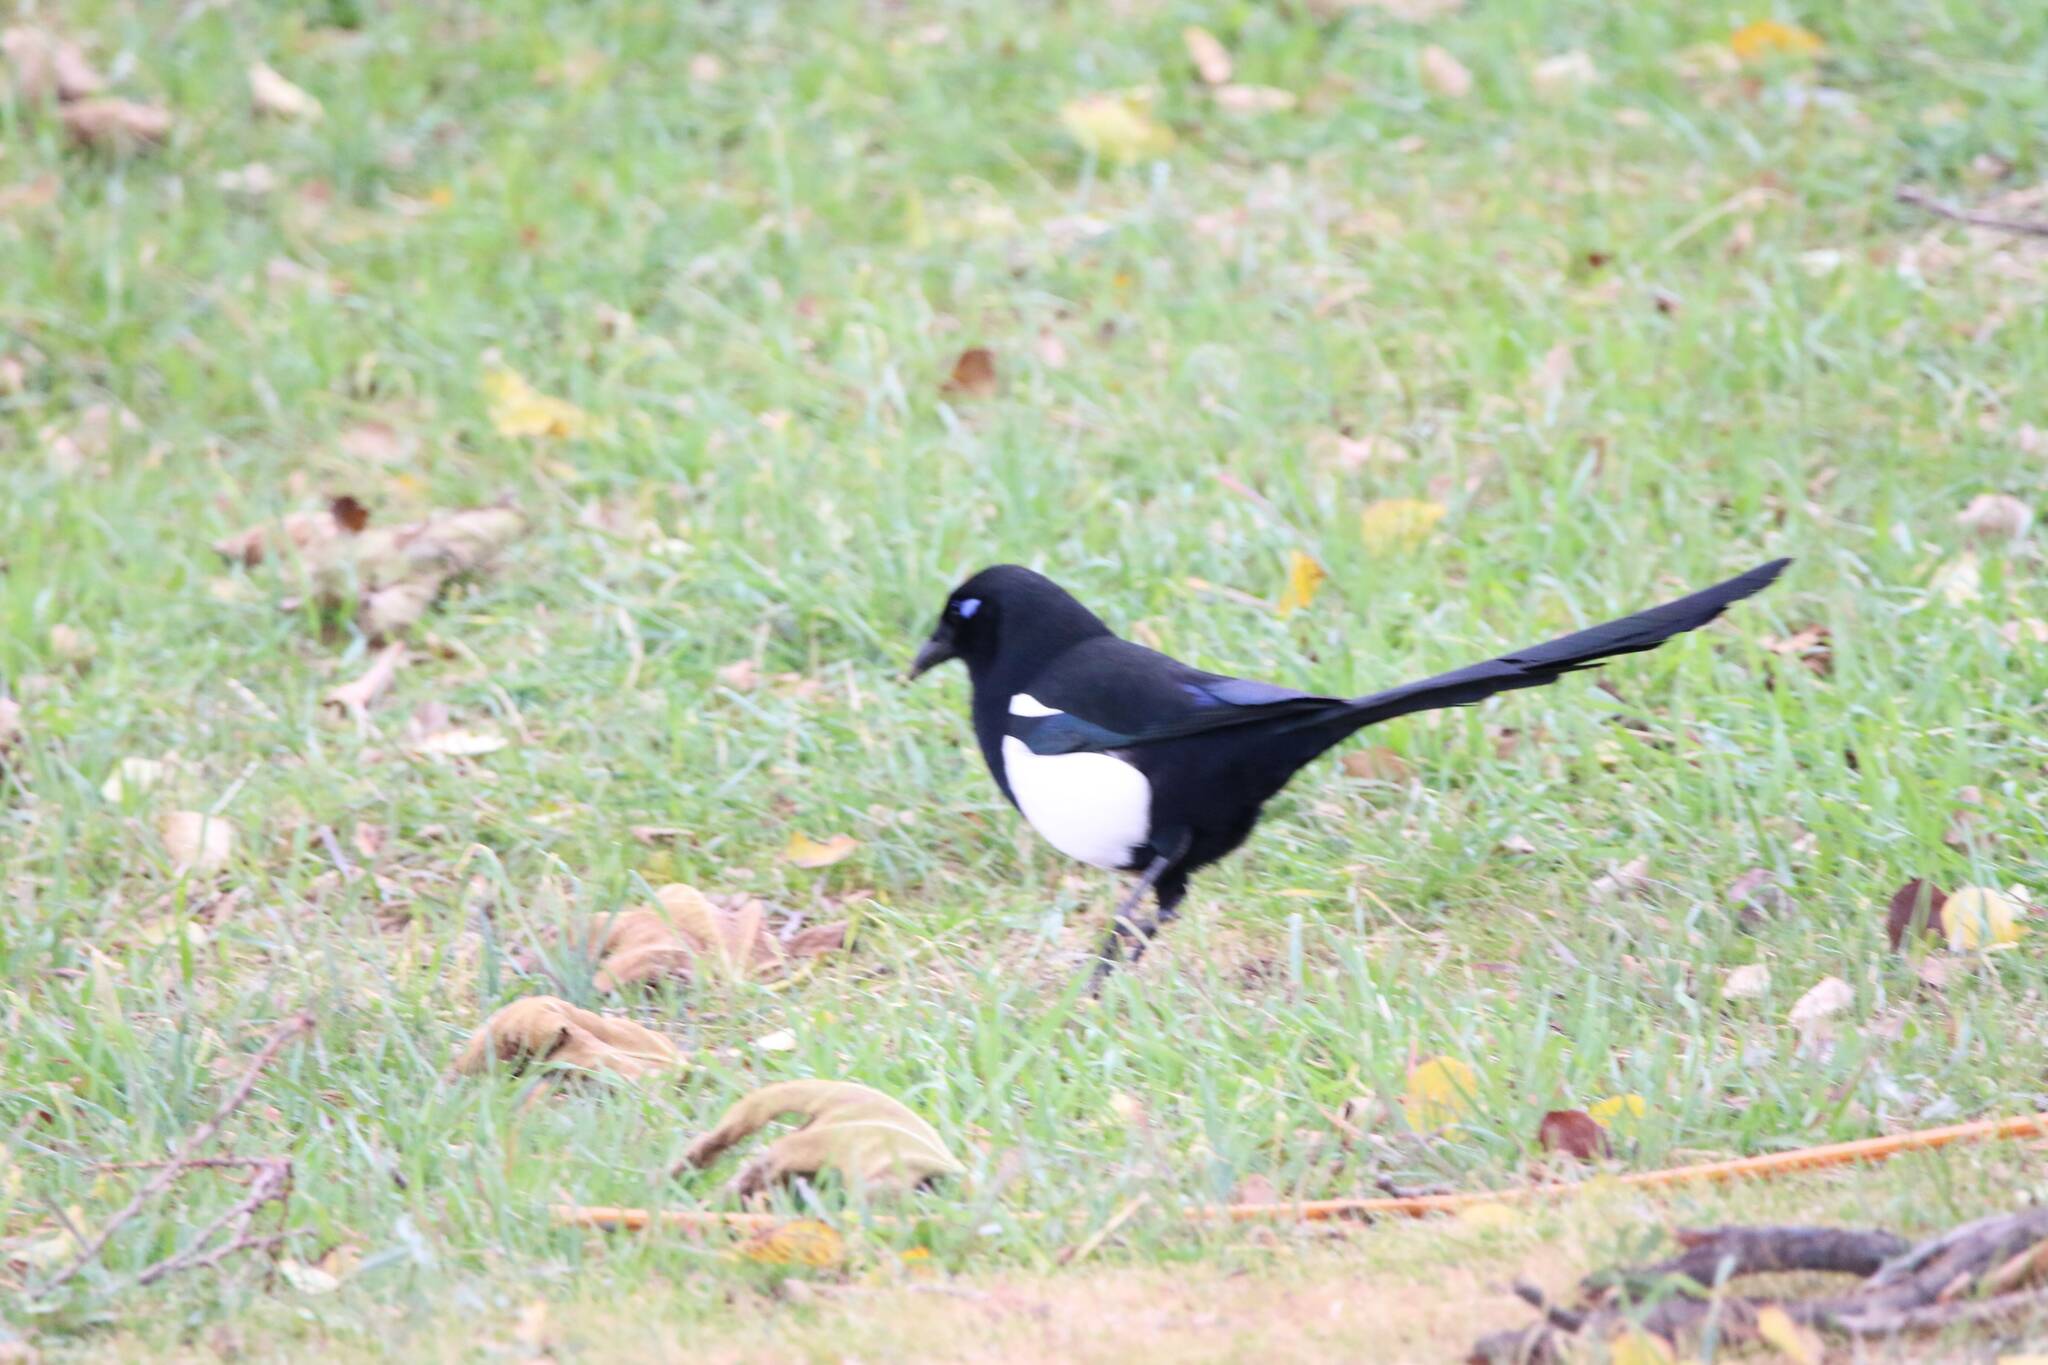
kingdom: Animalia
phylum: Chordata
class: Aves
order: Passeriformes
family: Corvidae
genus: Pica
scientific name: Pica mauritanica
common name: Maghreb magpie
